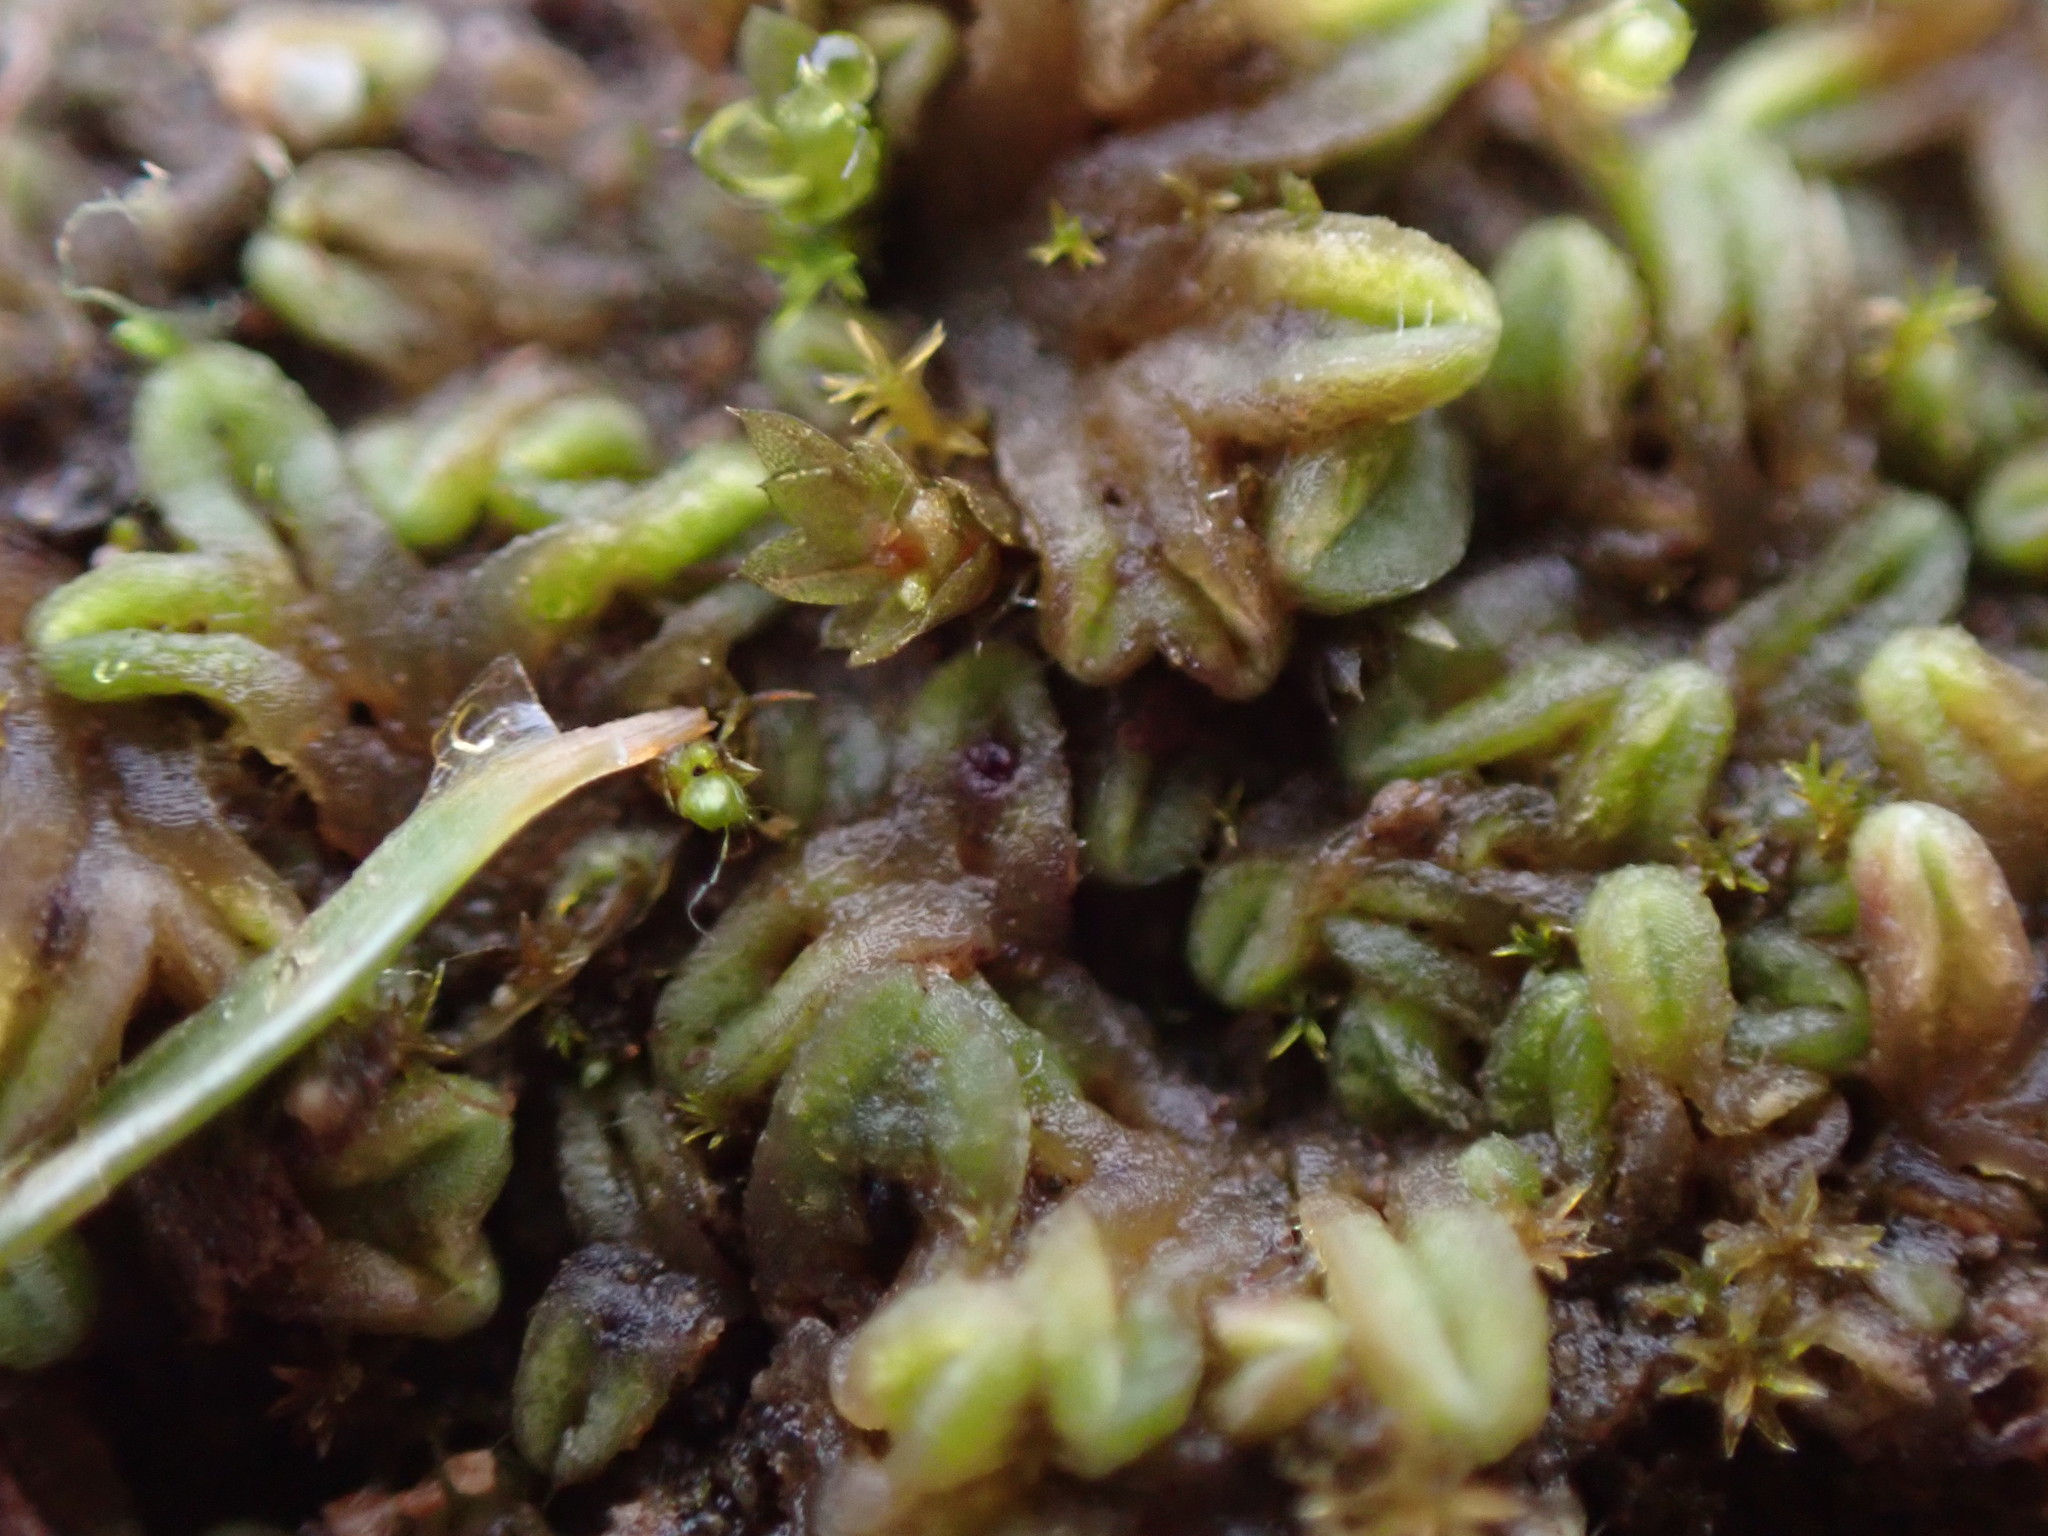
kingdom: Plantae
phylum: Marchantiophyta
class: Marchantiopsida
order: Marchantiales
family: Ricciaceae
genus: Riccia
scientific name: Riccia sorocarpa
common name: Common crystalwort
